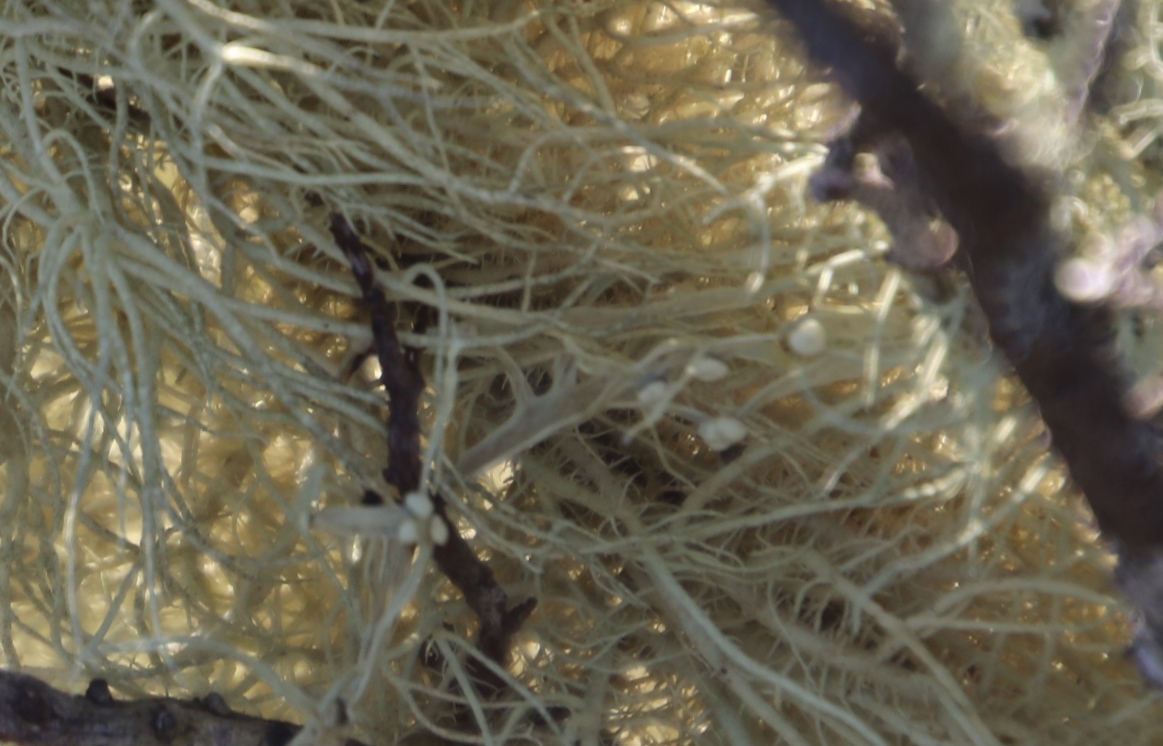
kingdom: Fungi
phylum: Ascomycota
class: Lecanoromycetes
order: Lecanorales
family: Ramalinaceae
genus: Ramalina
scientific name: Ramalina celastri
